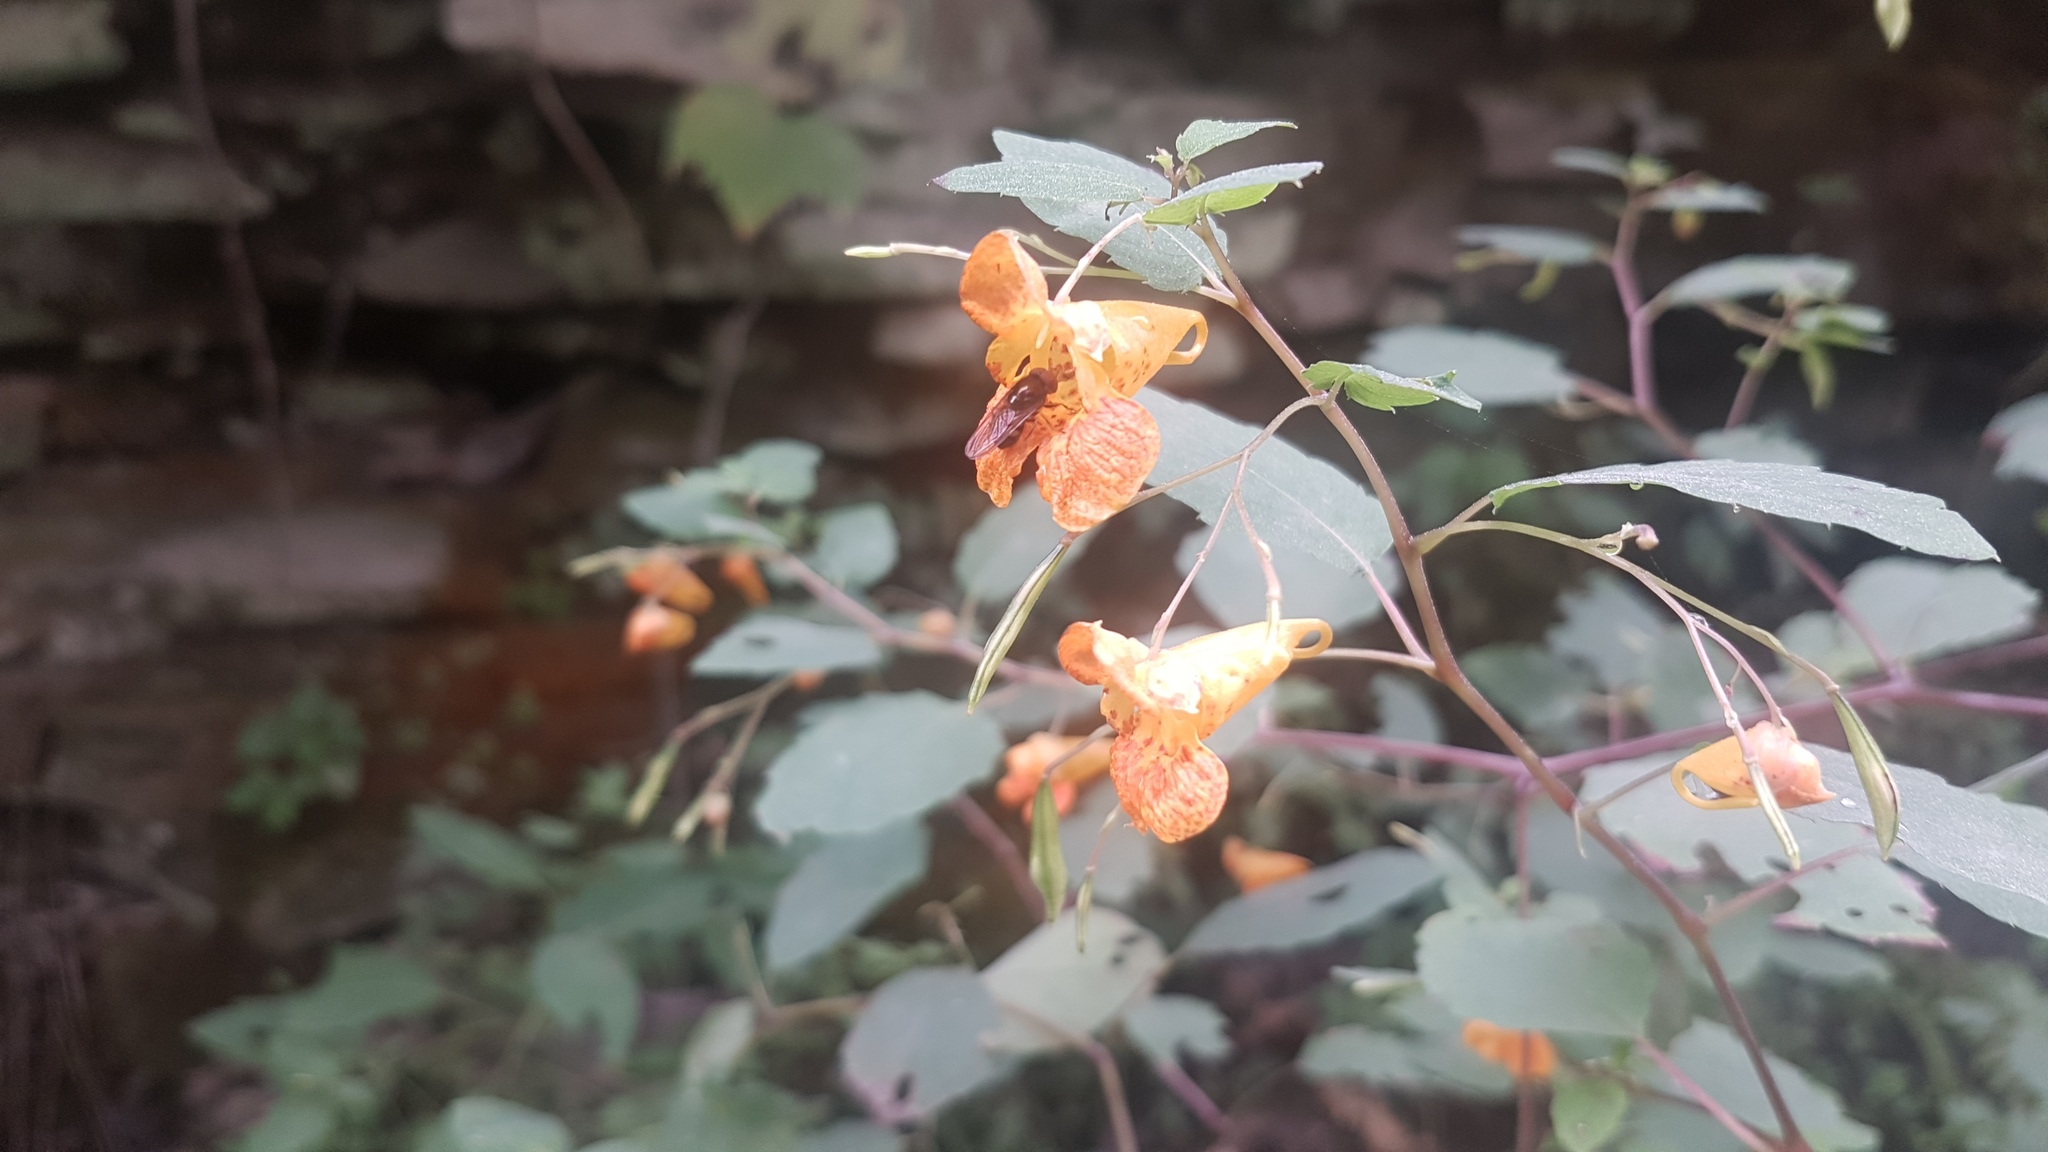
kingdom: Plantae
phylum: Tracheophyta
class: Magnoliopsida
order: Ericales
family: Balsaminaceae
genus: Impatiens
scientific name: Impatiens capensis
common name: Orange balsam
